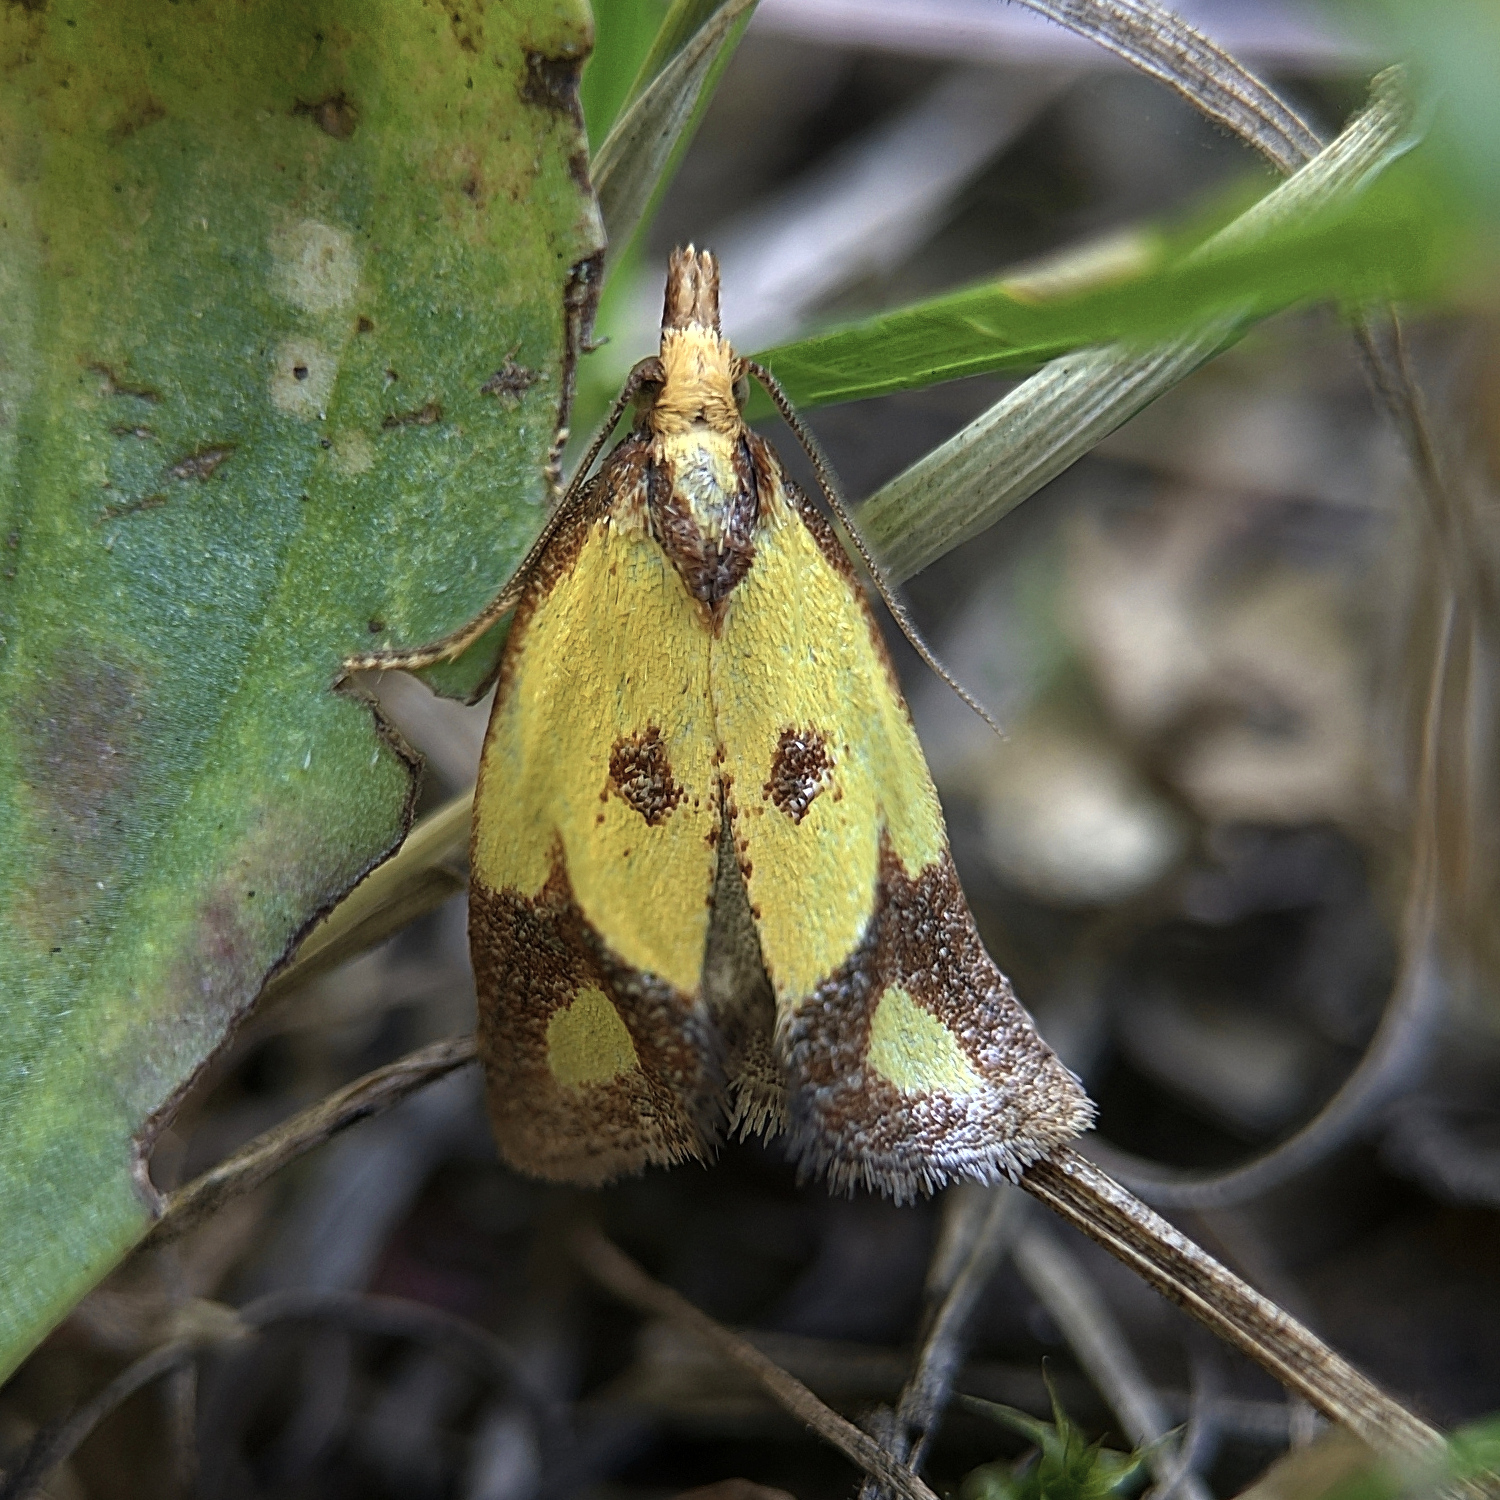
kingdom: Animalia
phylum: Arthropoda
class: Insecta
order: Lepidoptera
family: Tortricidae
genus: Agapeta
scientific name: Agapeta zoegana
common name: Sulfur knapweed root moth
